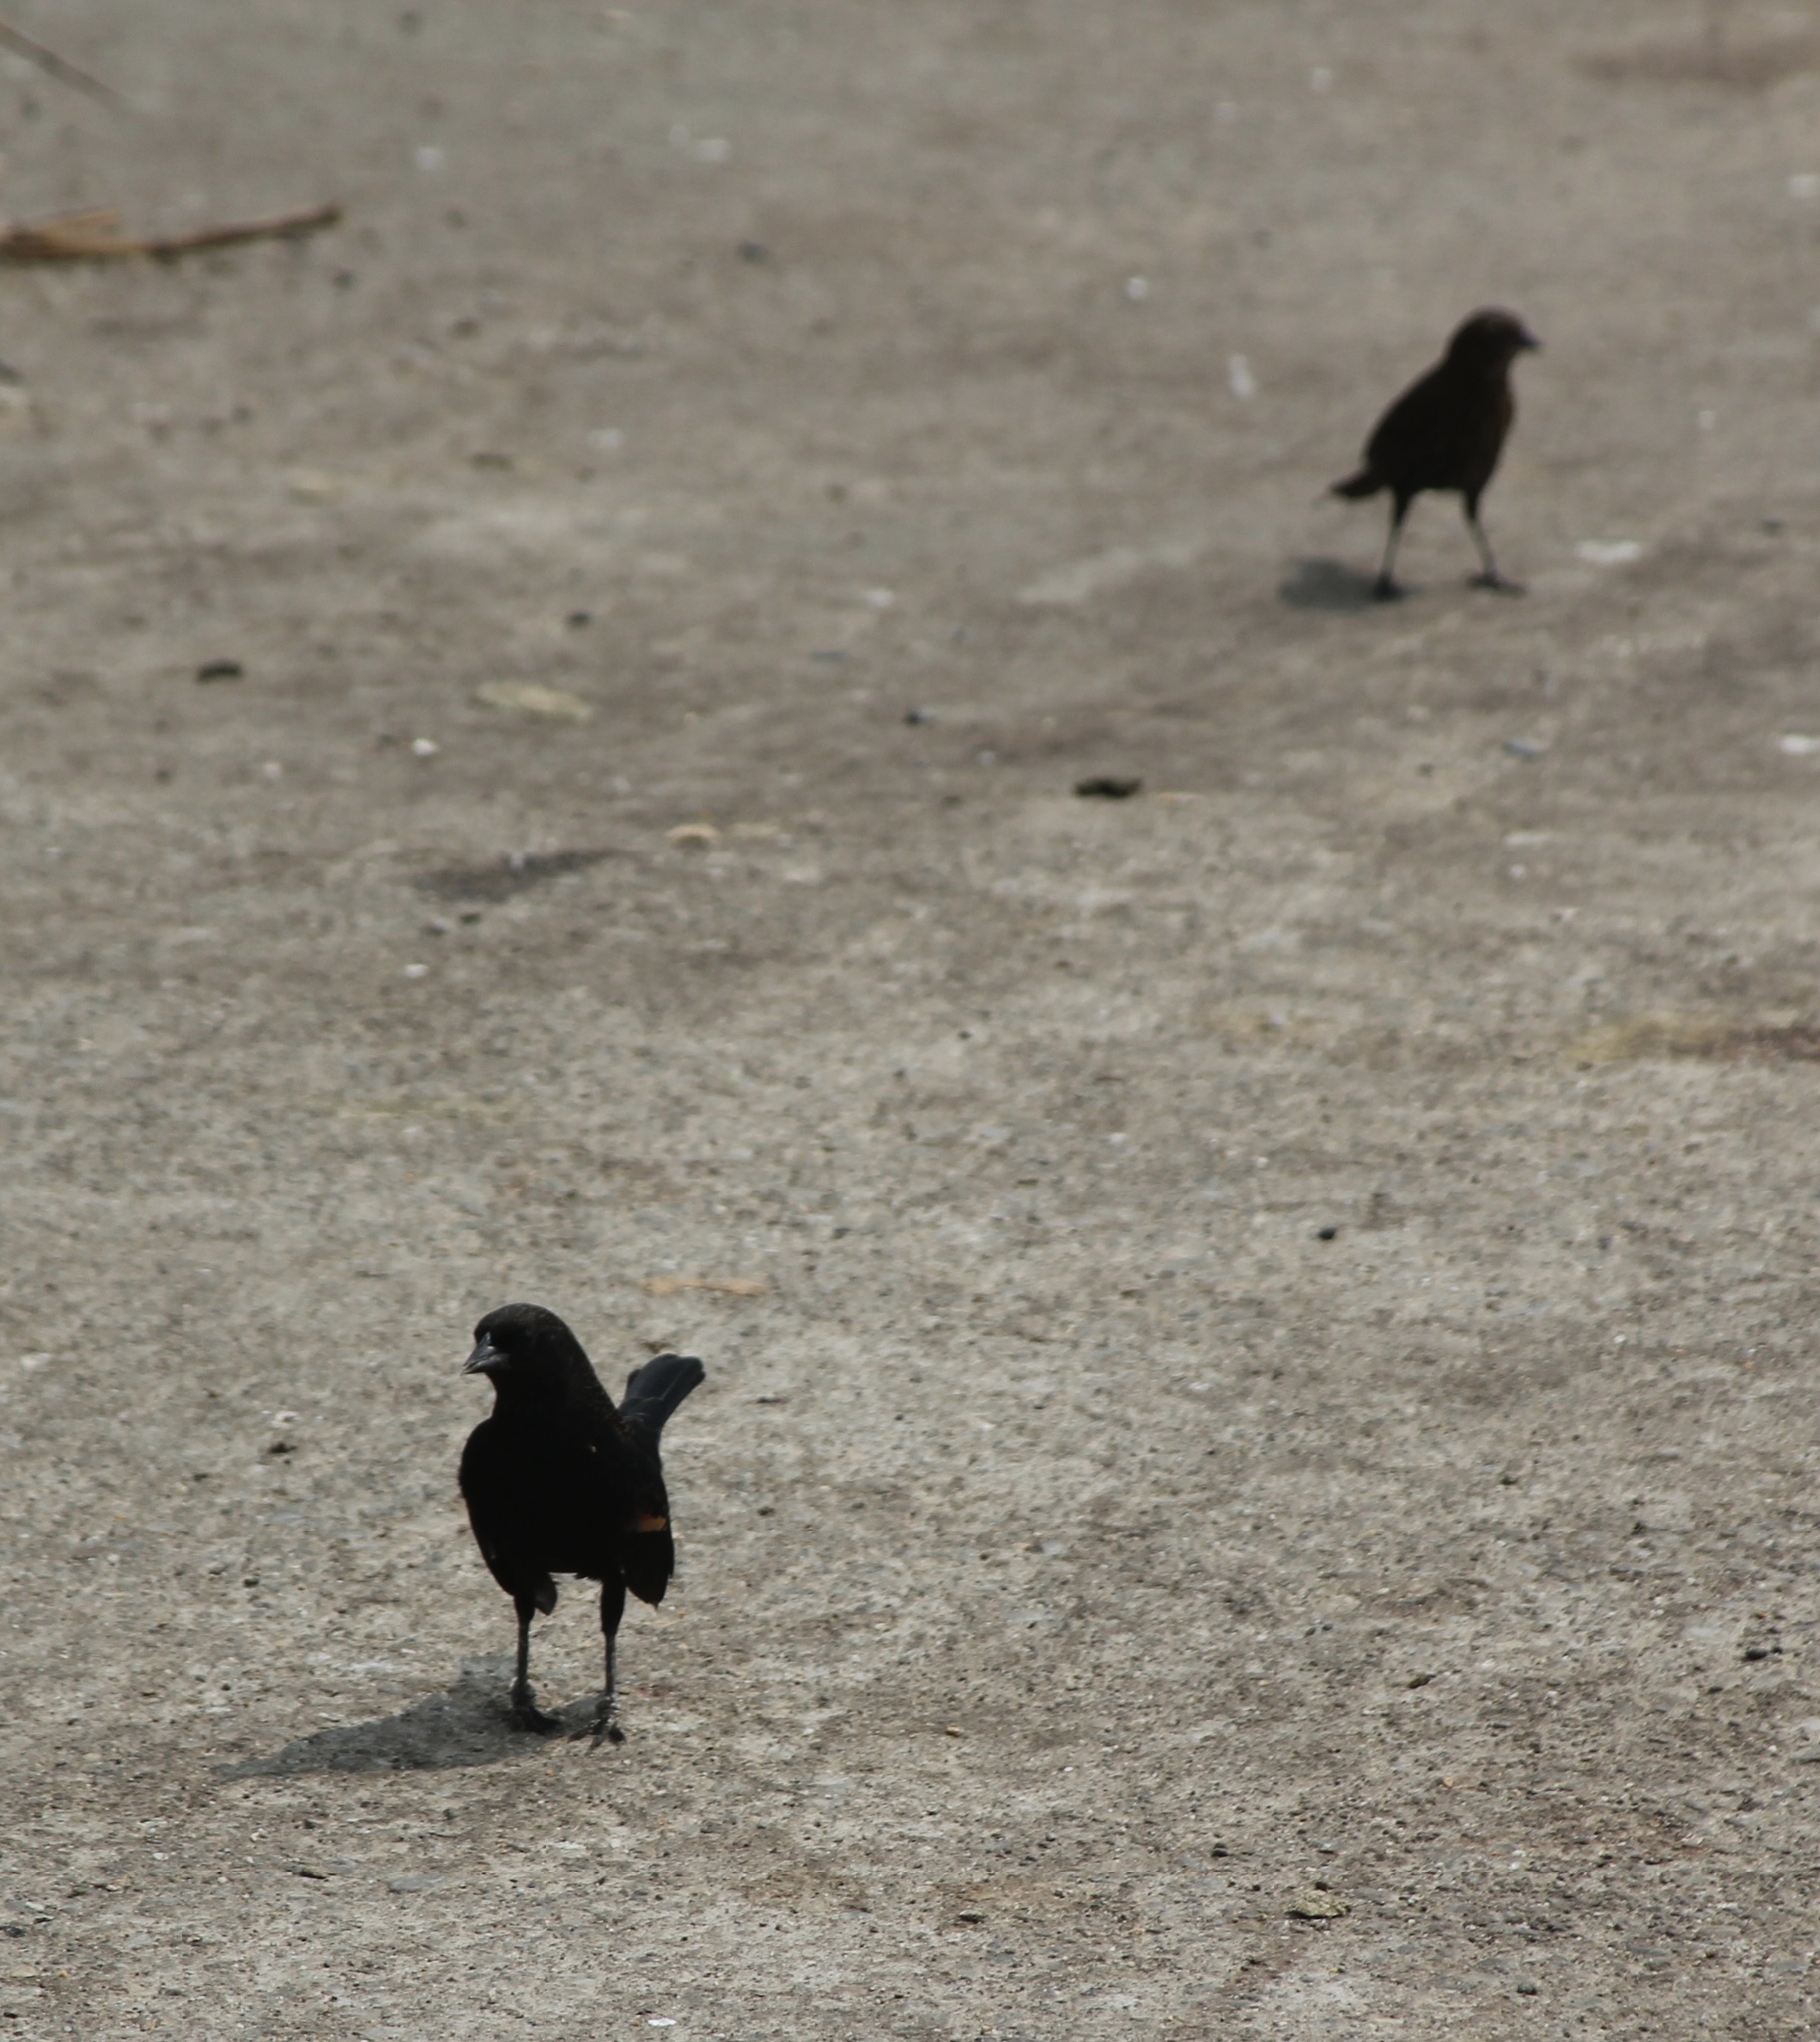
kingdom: Animalia
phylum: Chordata
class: Aves
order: Passeriformes
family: Icteridae
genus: Agelaius
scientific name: Agelaius phoeniceus
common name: Red-winged blackbird
